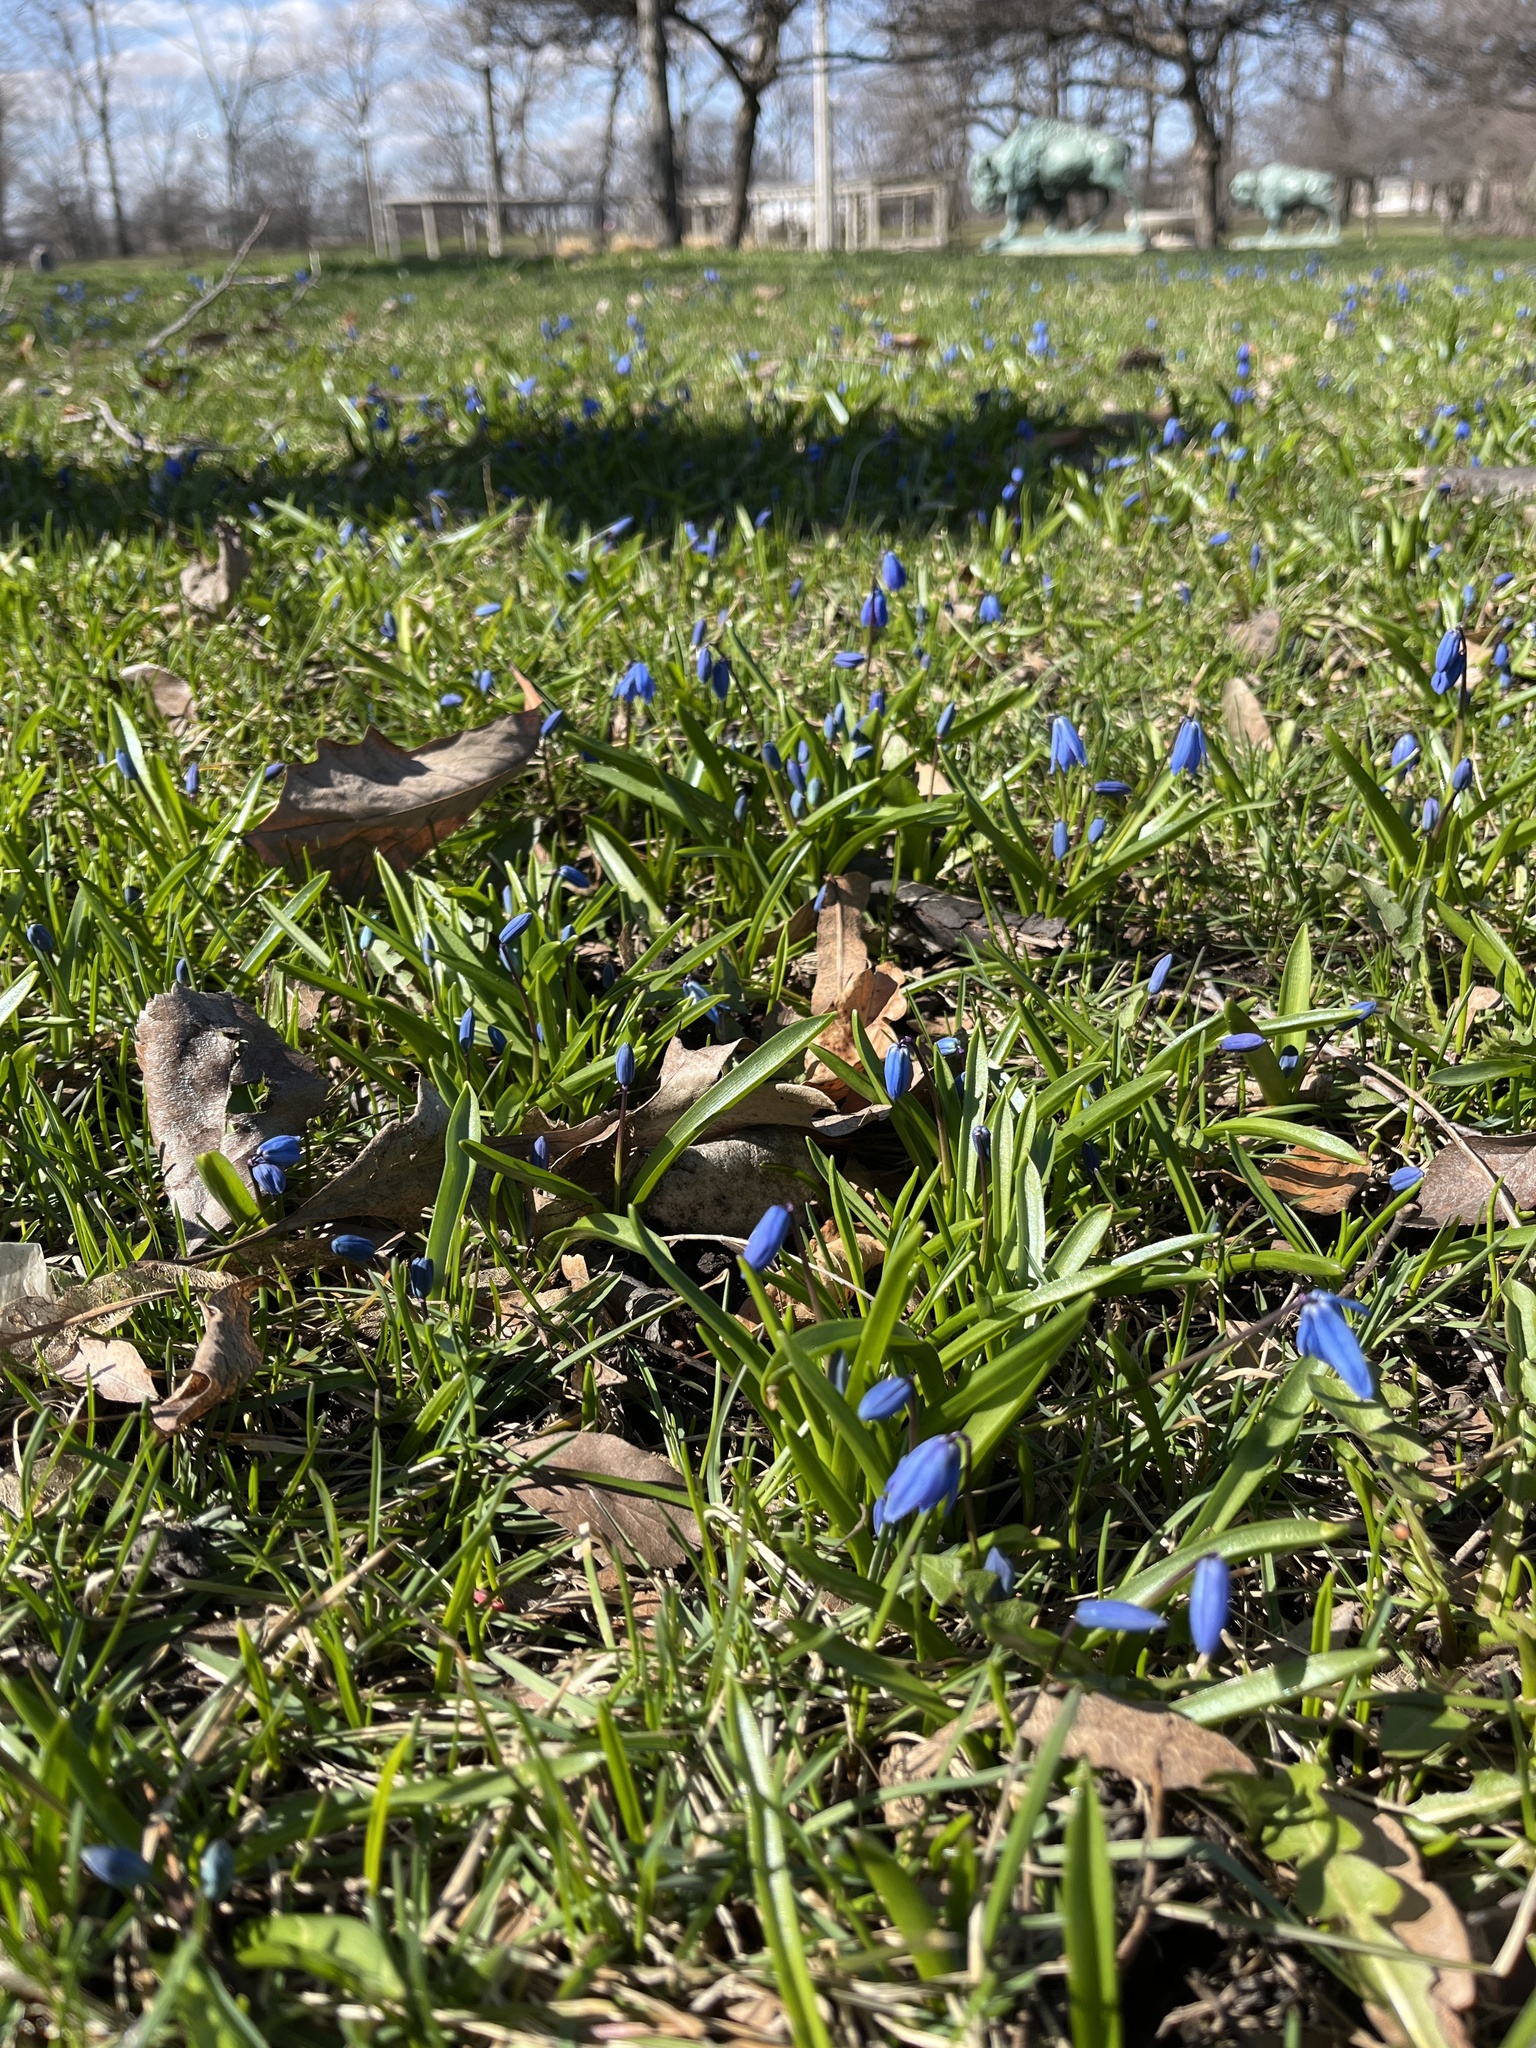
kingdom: Plantae
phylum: Tracheophyta
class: Liliopsida
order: Asparagales
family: Asparagaceae
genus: Scilla
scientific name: Scilla siberica
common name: Siberian squill
